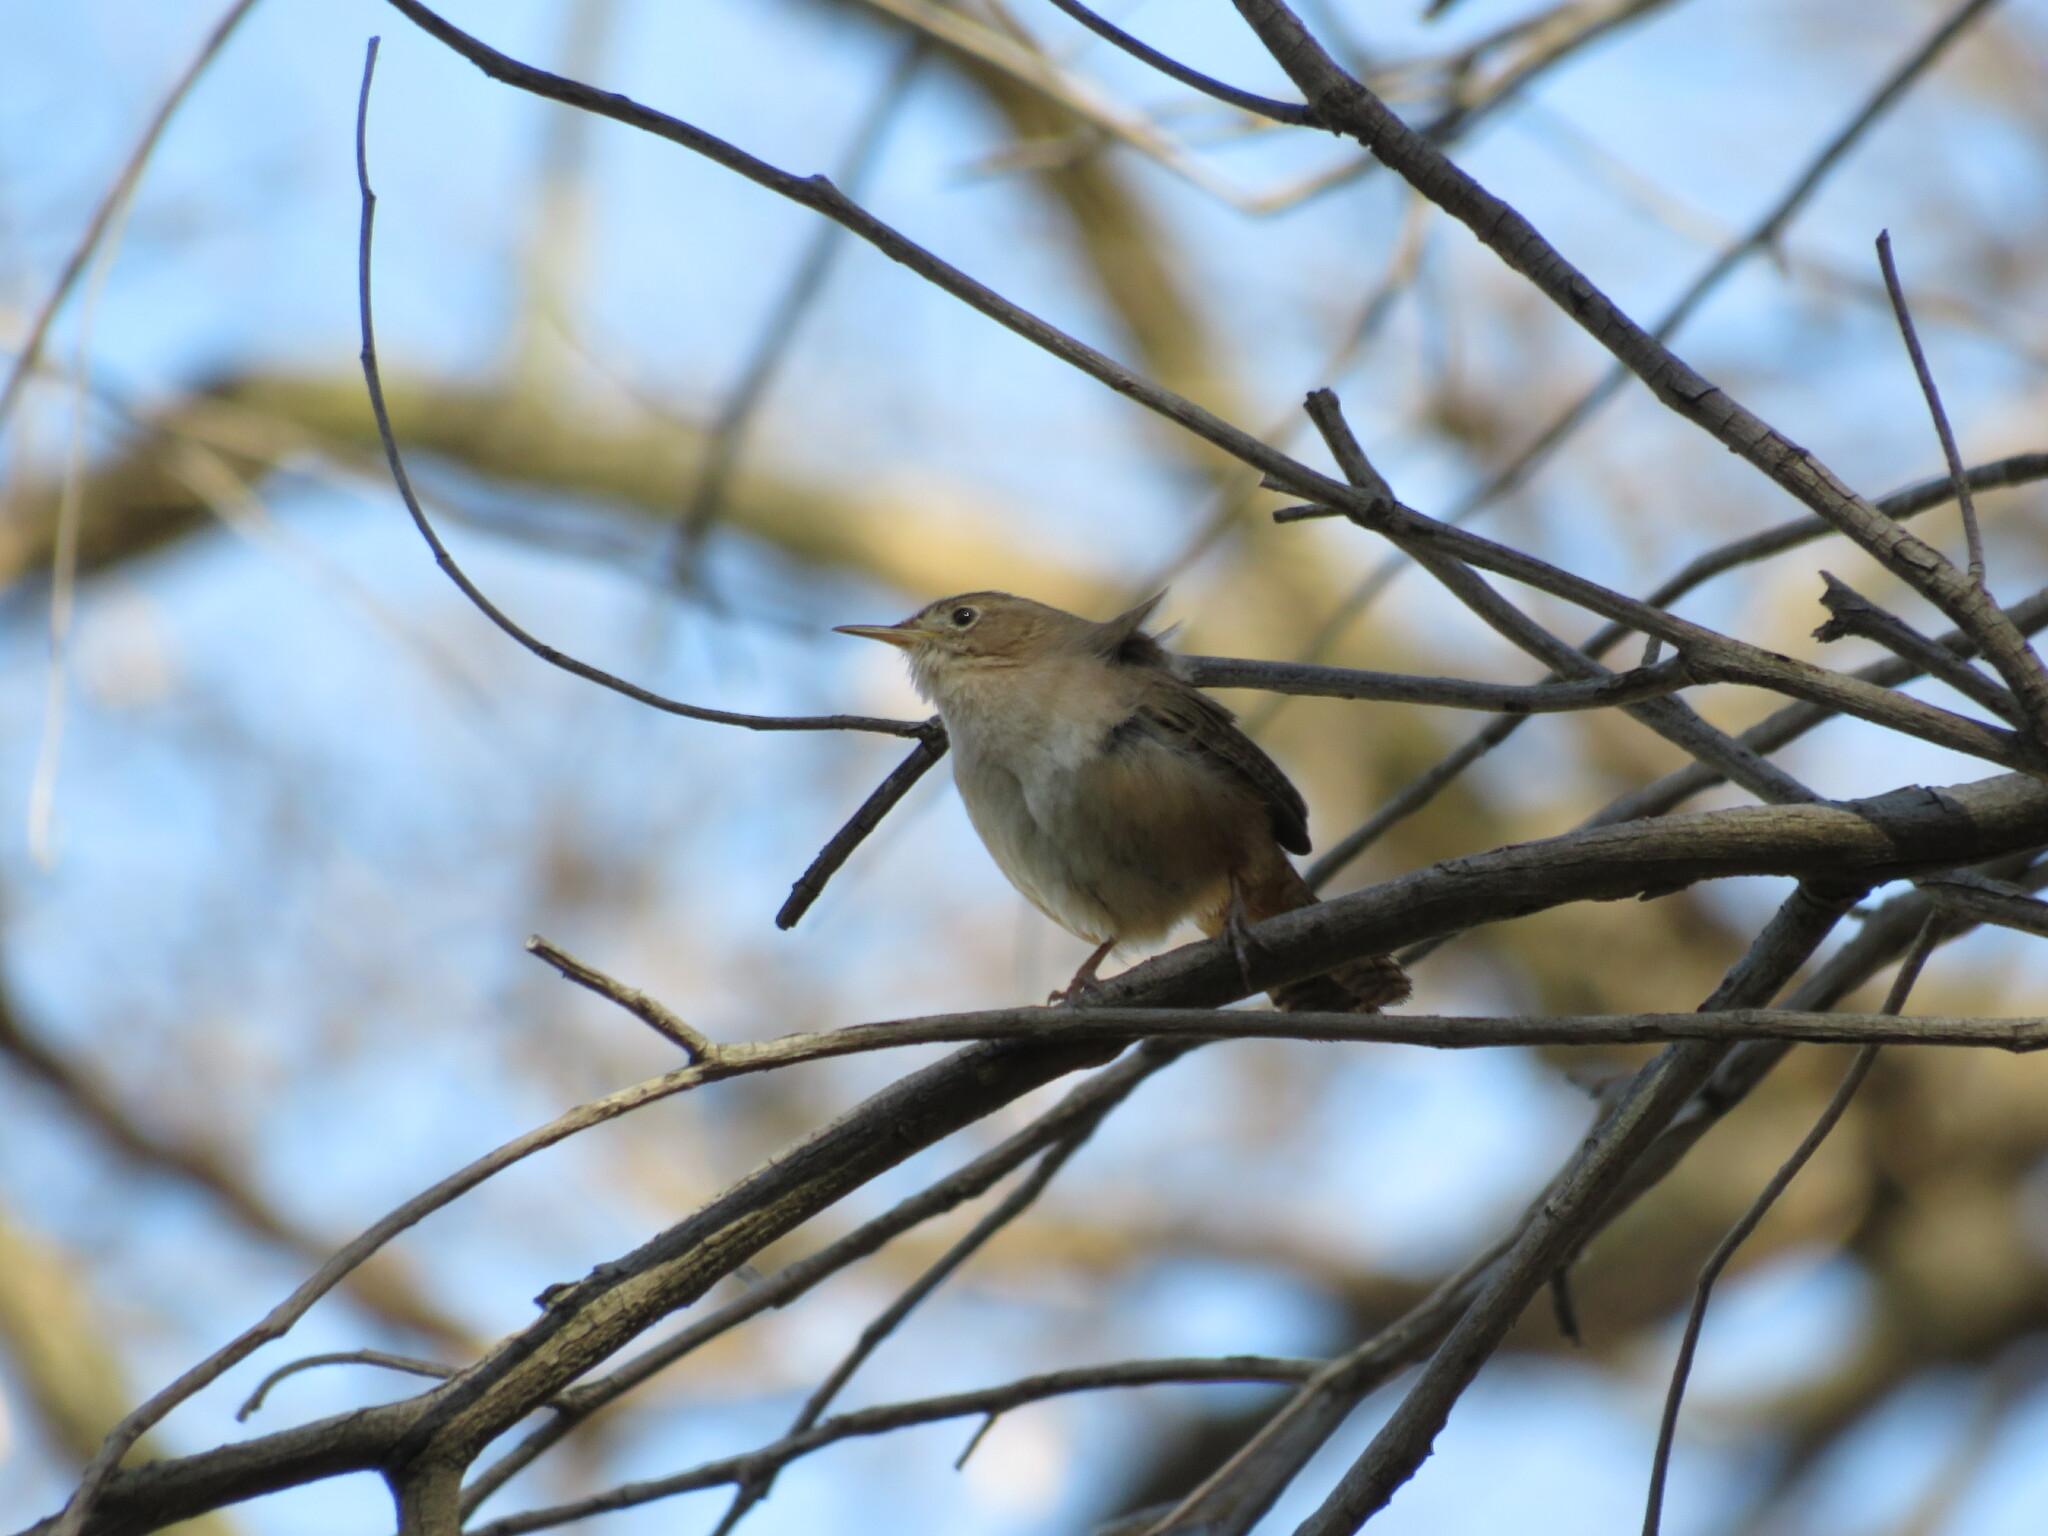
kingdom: Animalia
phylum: Chordata
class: Aves
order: Passeriformes
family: Troglodytidae
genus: Troglodytes
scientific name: Troglodytes aedon
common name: House wren
